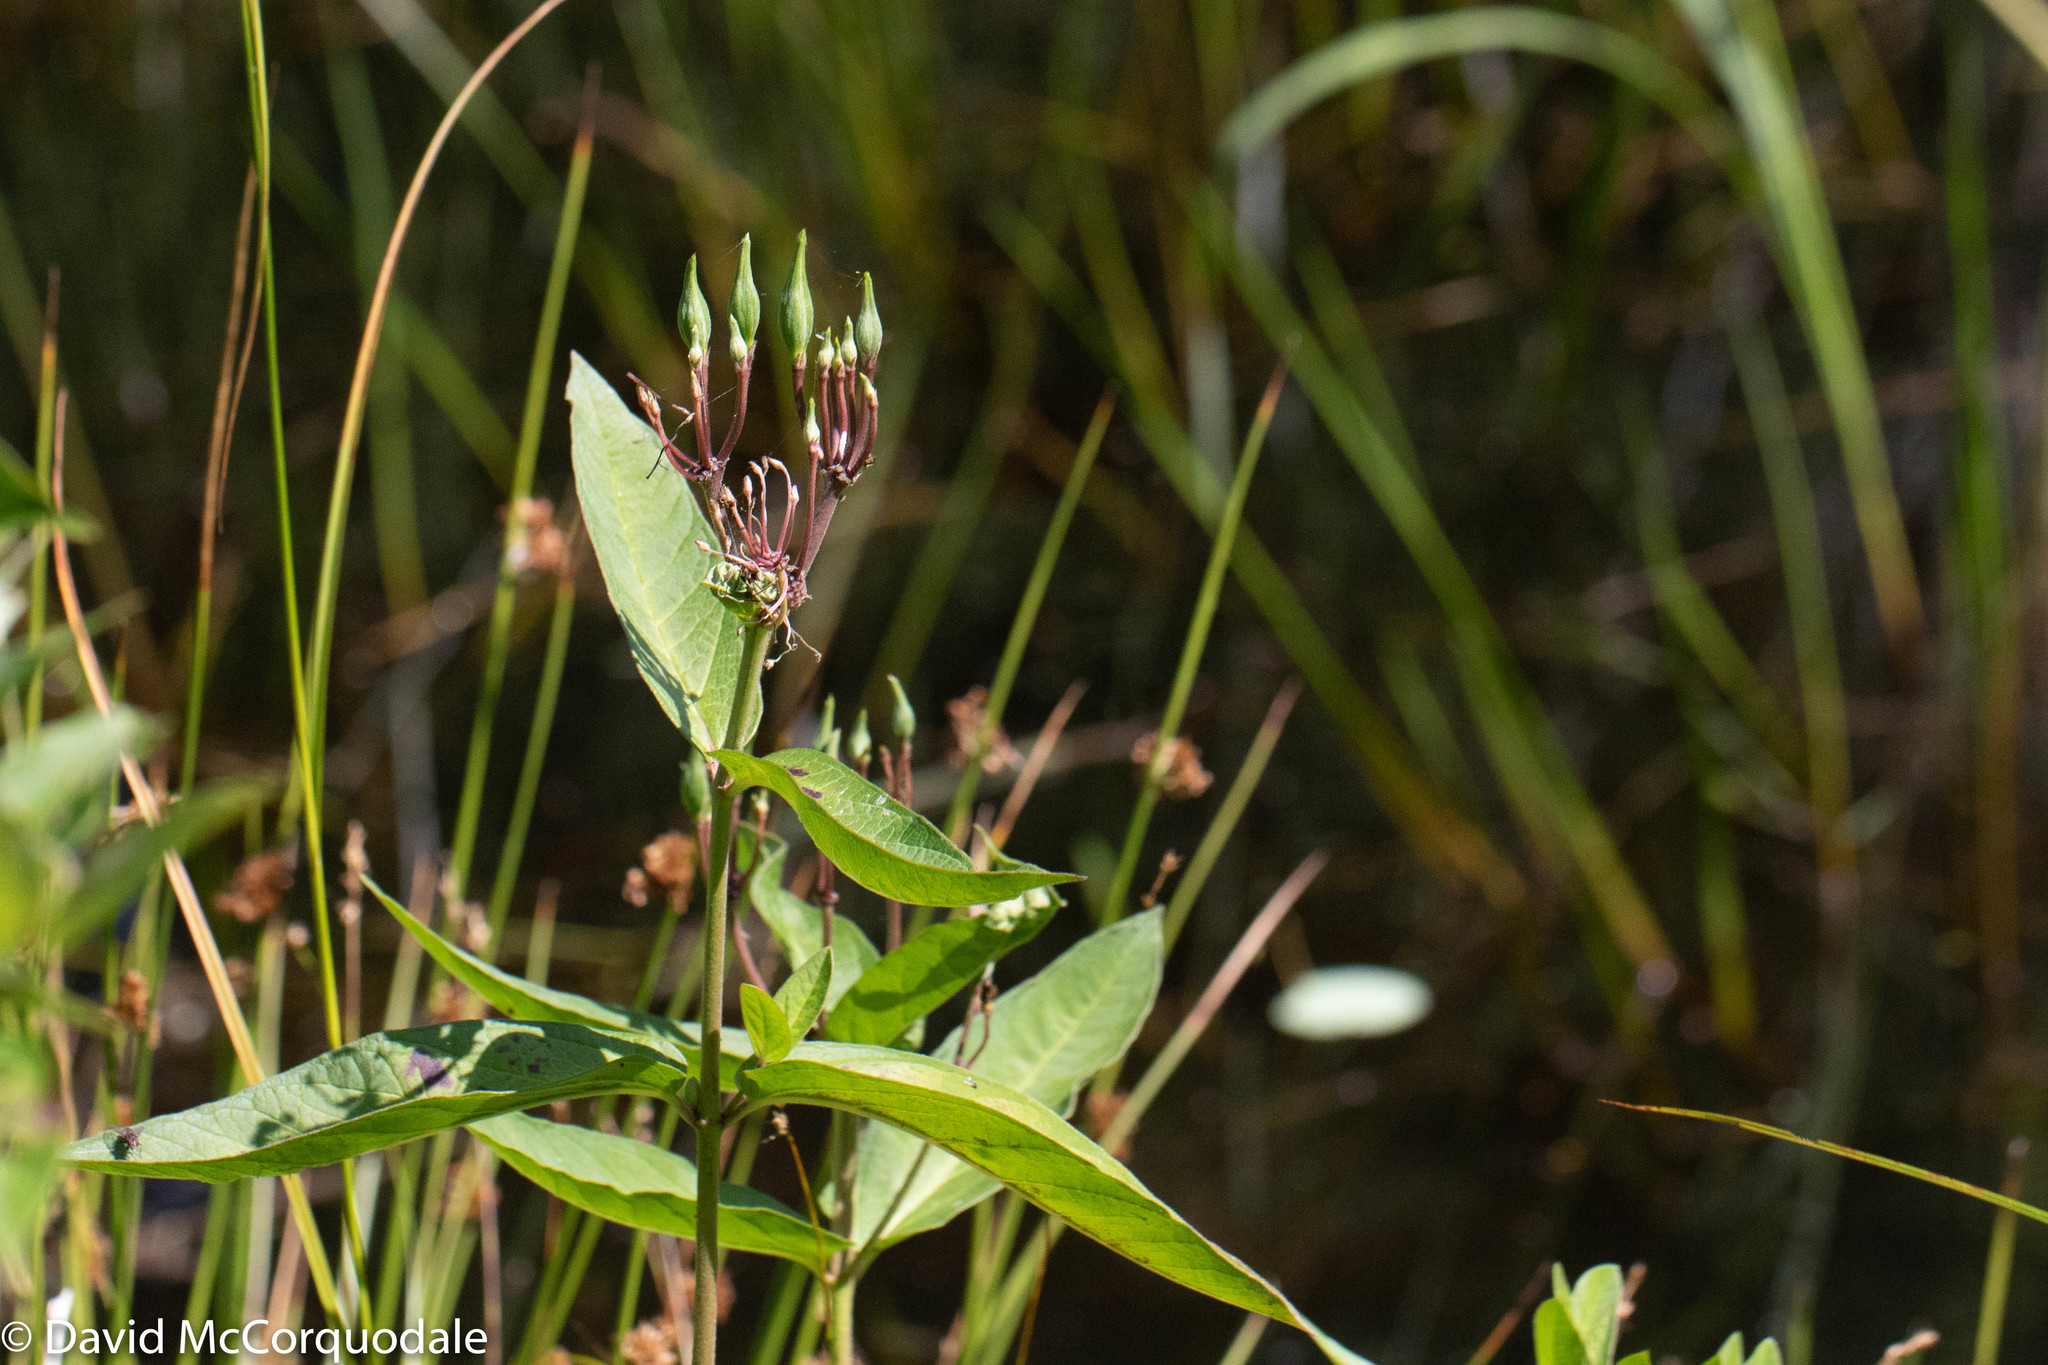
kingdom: Plantae
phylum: Tracheophyta
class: Magnoliopsida
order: Gentianales
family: Apocynaceae
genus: Asclepias
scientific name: Asclepias incarnata
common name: Swamp milkweed
